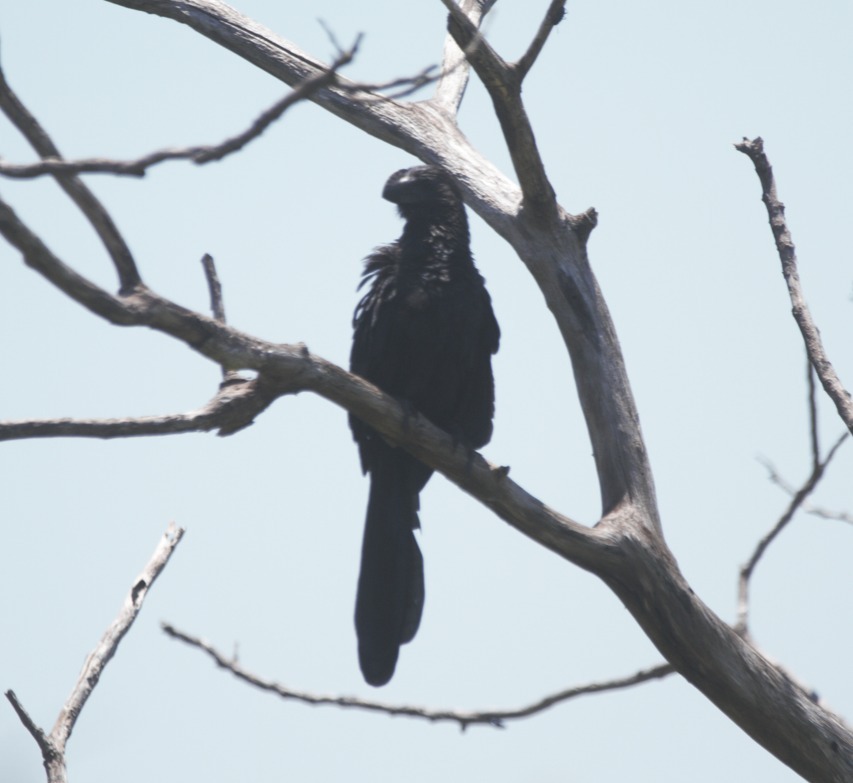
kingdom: Animalia
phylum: Chordata
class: Aves
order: Cuculiformes
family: Cuculidae
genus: Crotophaga
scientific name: Crotophaga ani
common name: Smooth-billed ani
